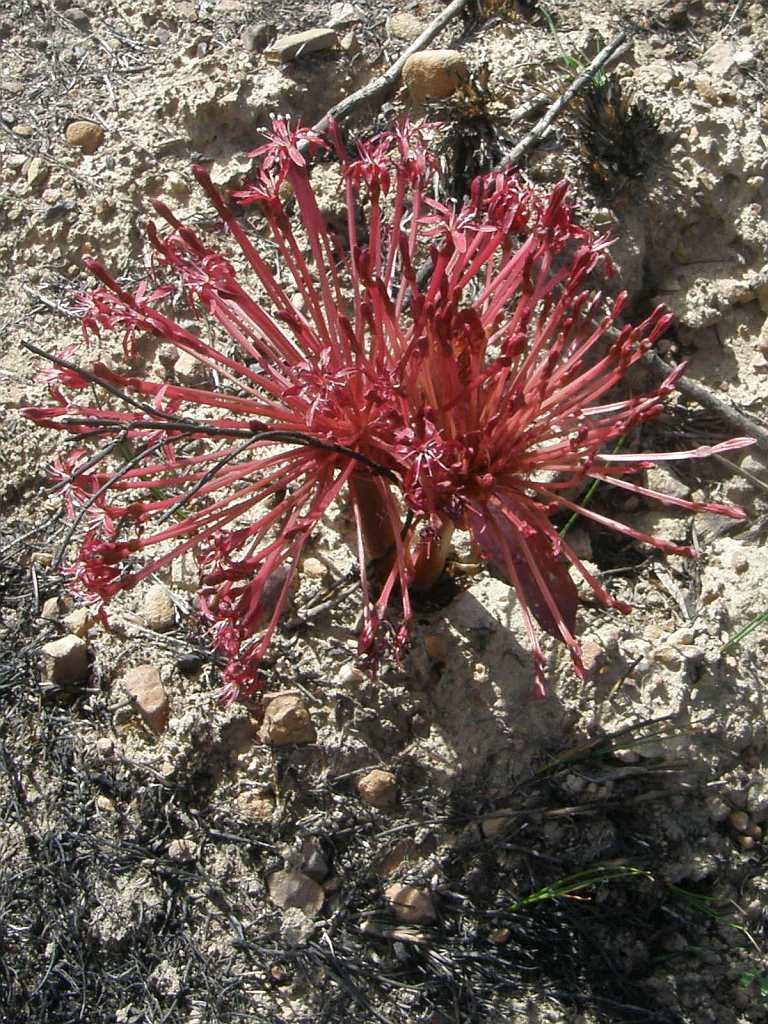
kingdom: Plantae
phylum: Tracheophyta
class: Liliopsida
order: Asparagales
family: Amaryllidaceae
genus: Crossyne
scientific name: Crossyne guttata
